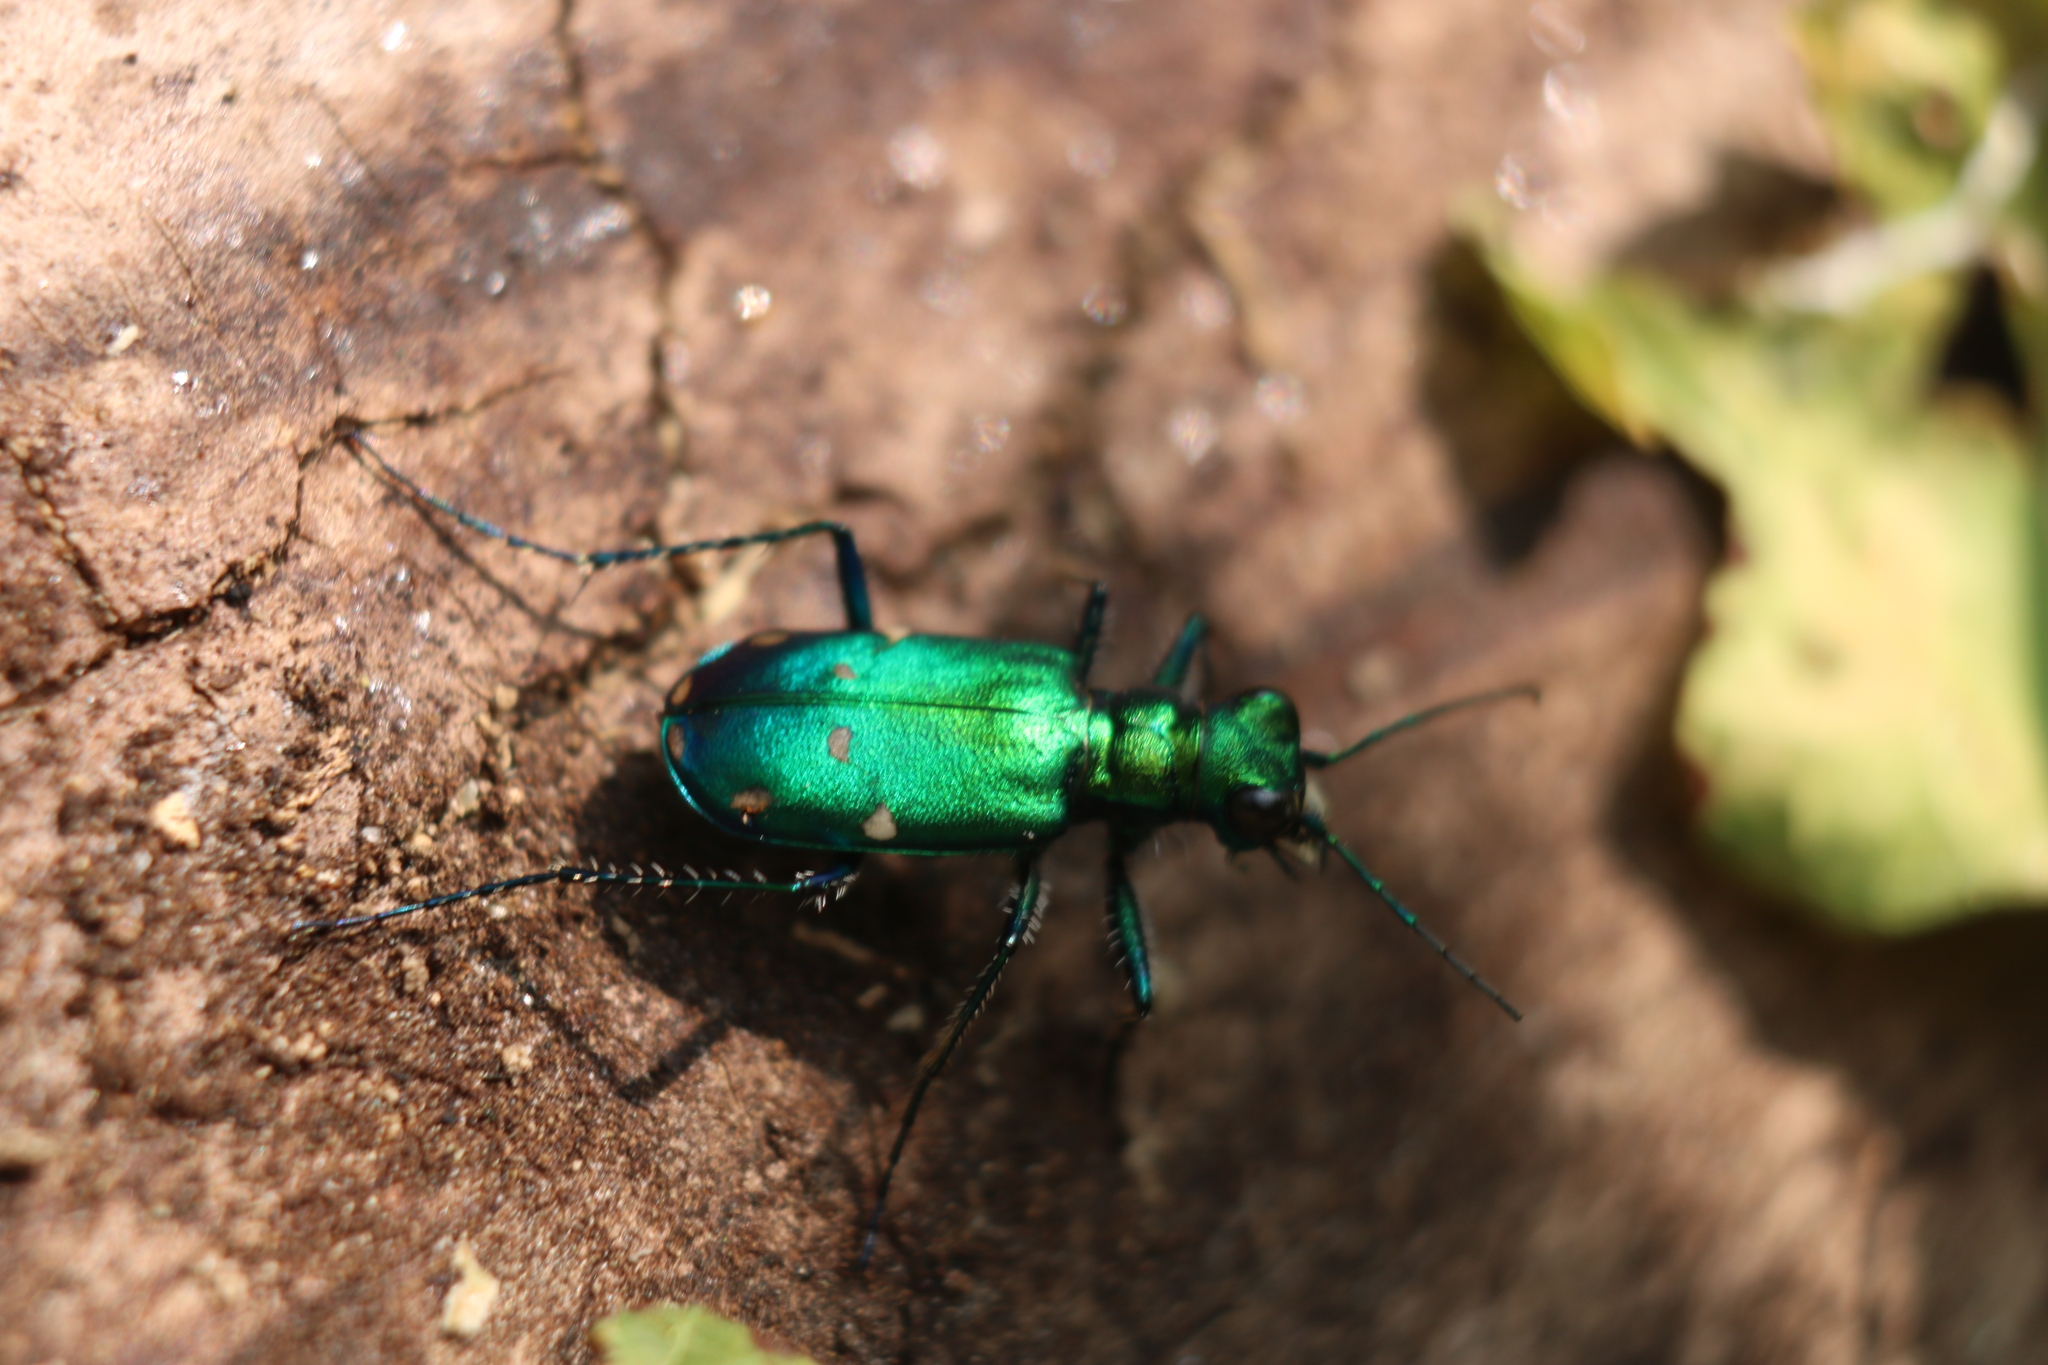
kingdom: Animalia
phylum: Arthropoda
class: Insecta
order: Coleoptera
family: Carabidae
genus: Cicindela
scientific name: Cicindela sexguttata
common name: Six-spotted tiger beetle
